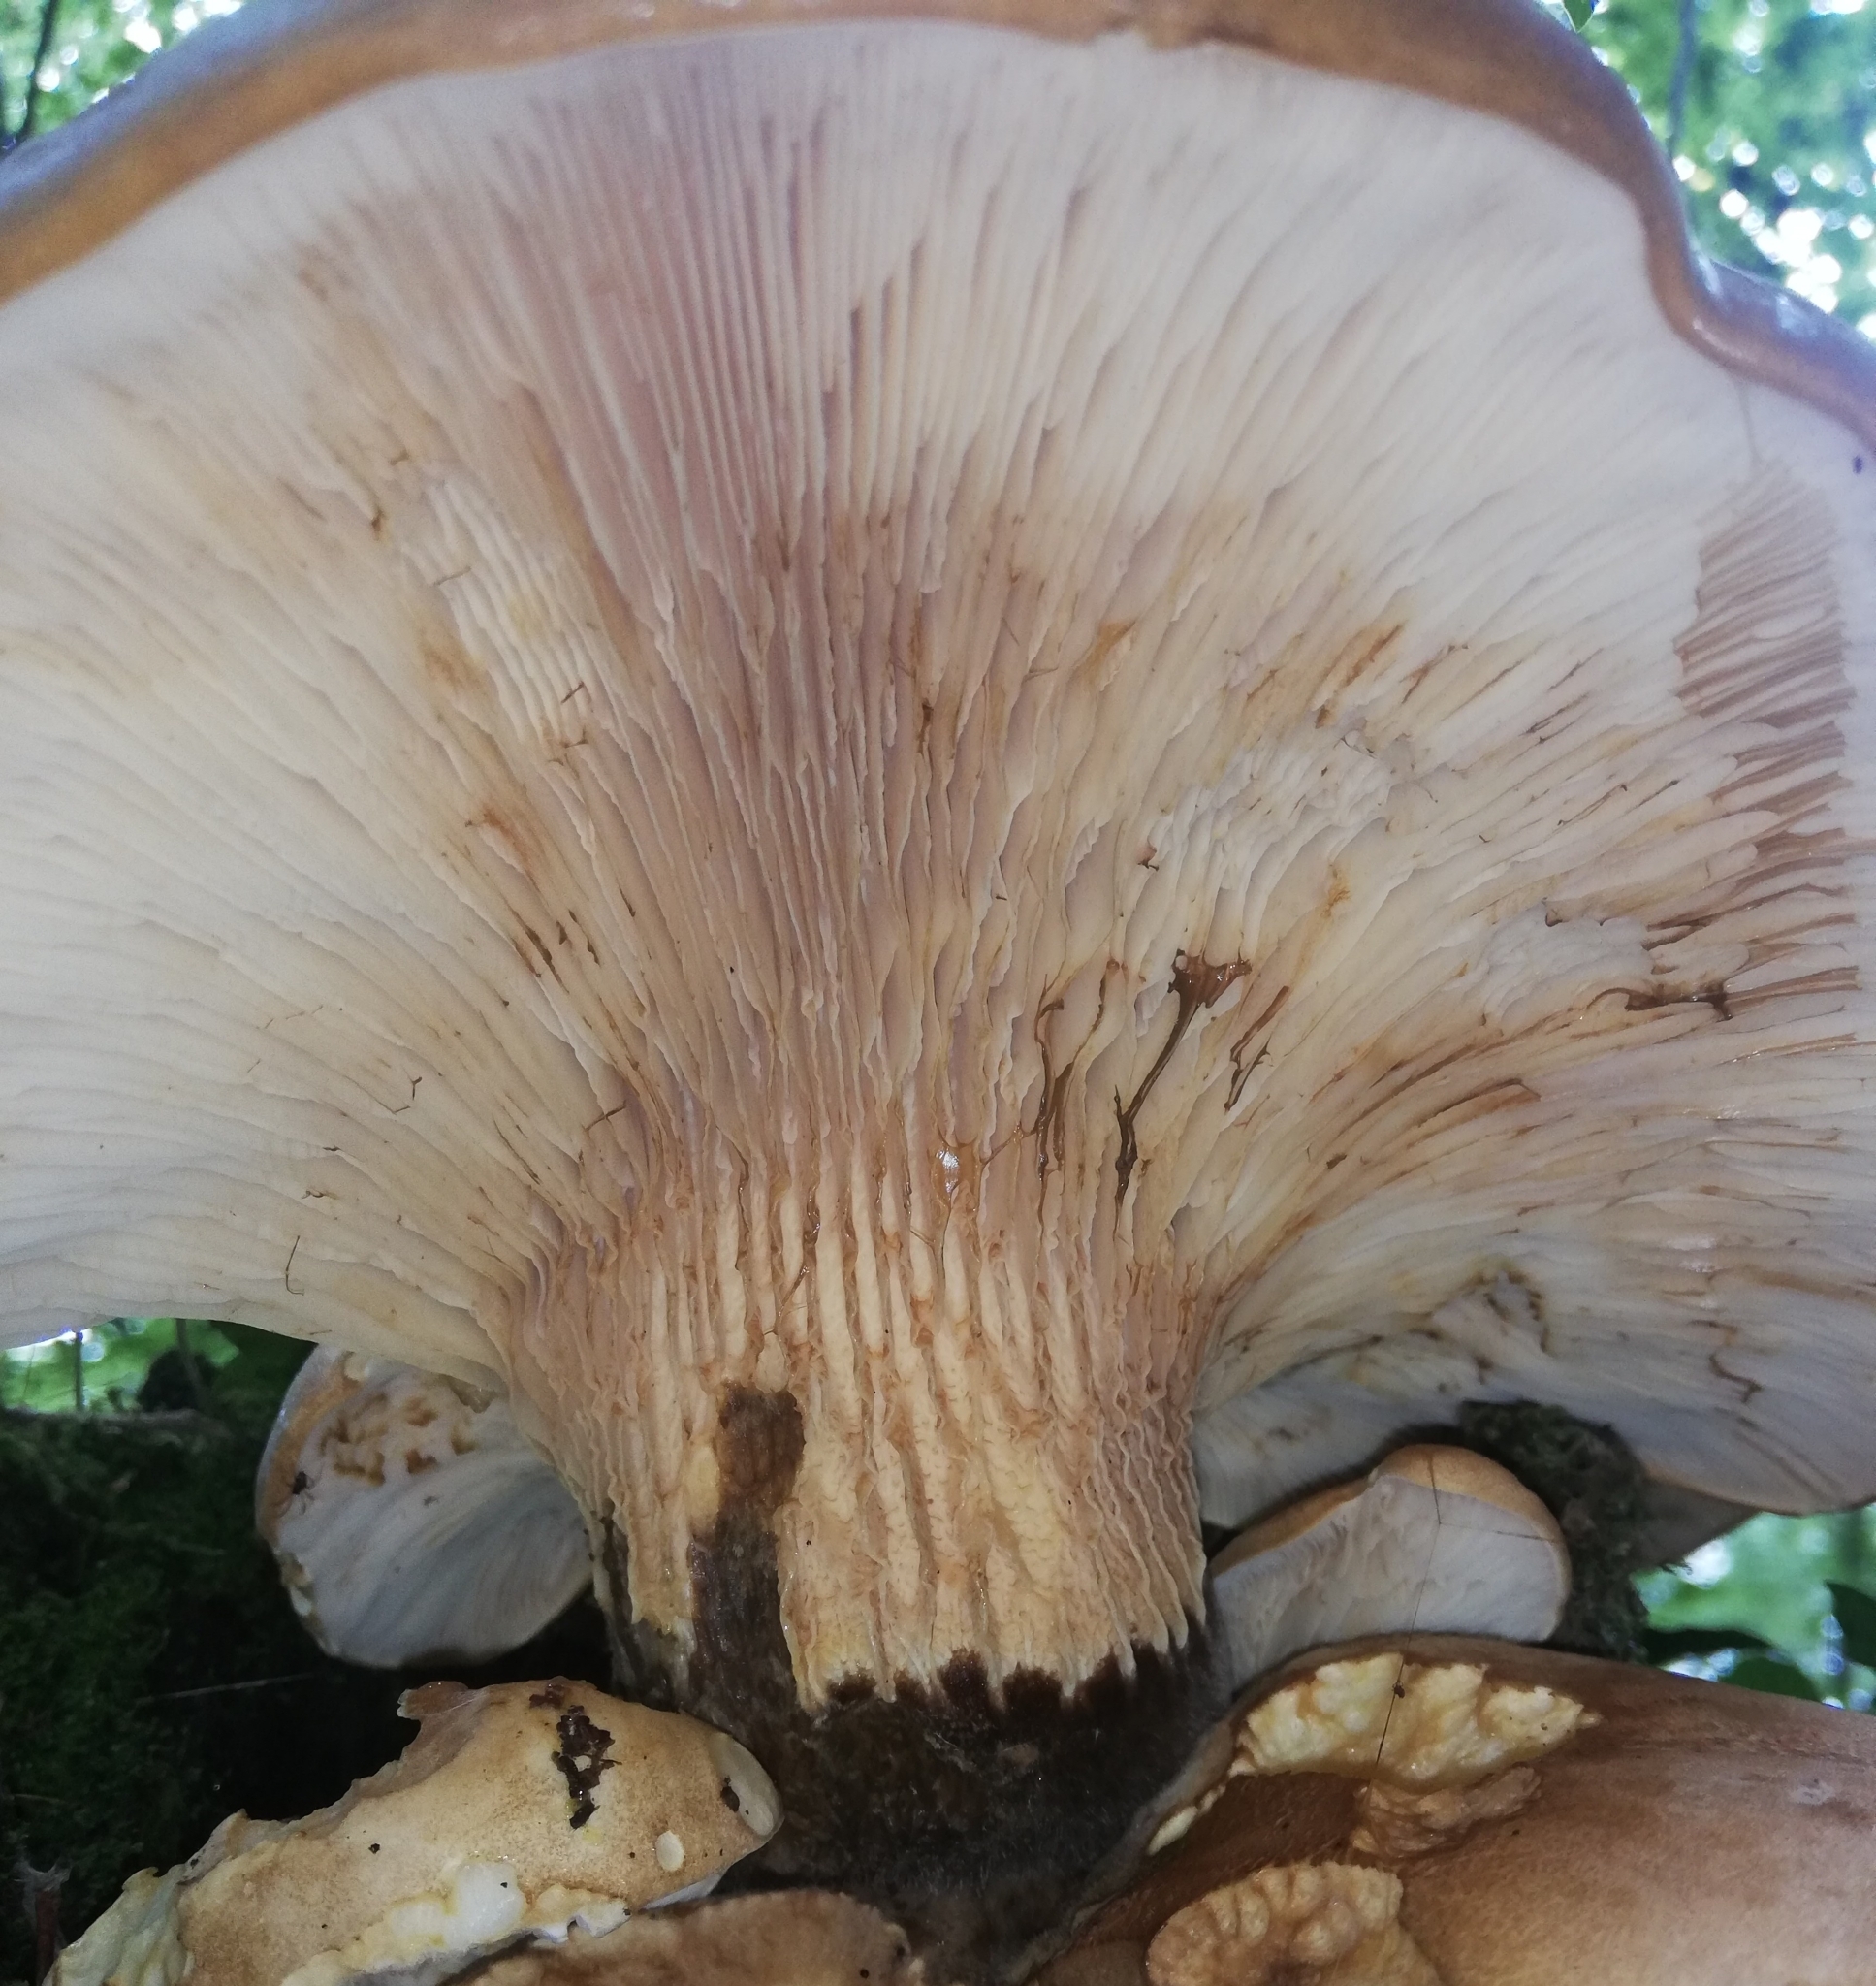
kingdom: Fungi
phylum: Basidiomycota
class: Agaricomycetes
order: Boletales
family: Tapinellaceae
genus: Tapinella
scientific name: Tapinella atrotomentosa
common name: Velvet rollrim
